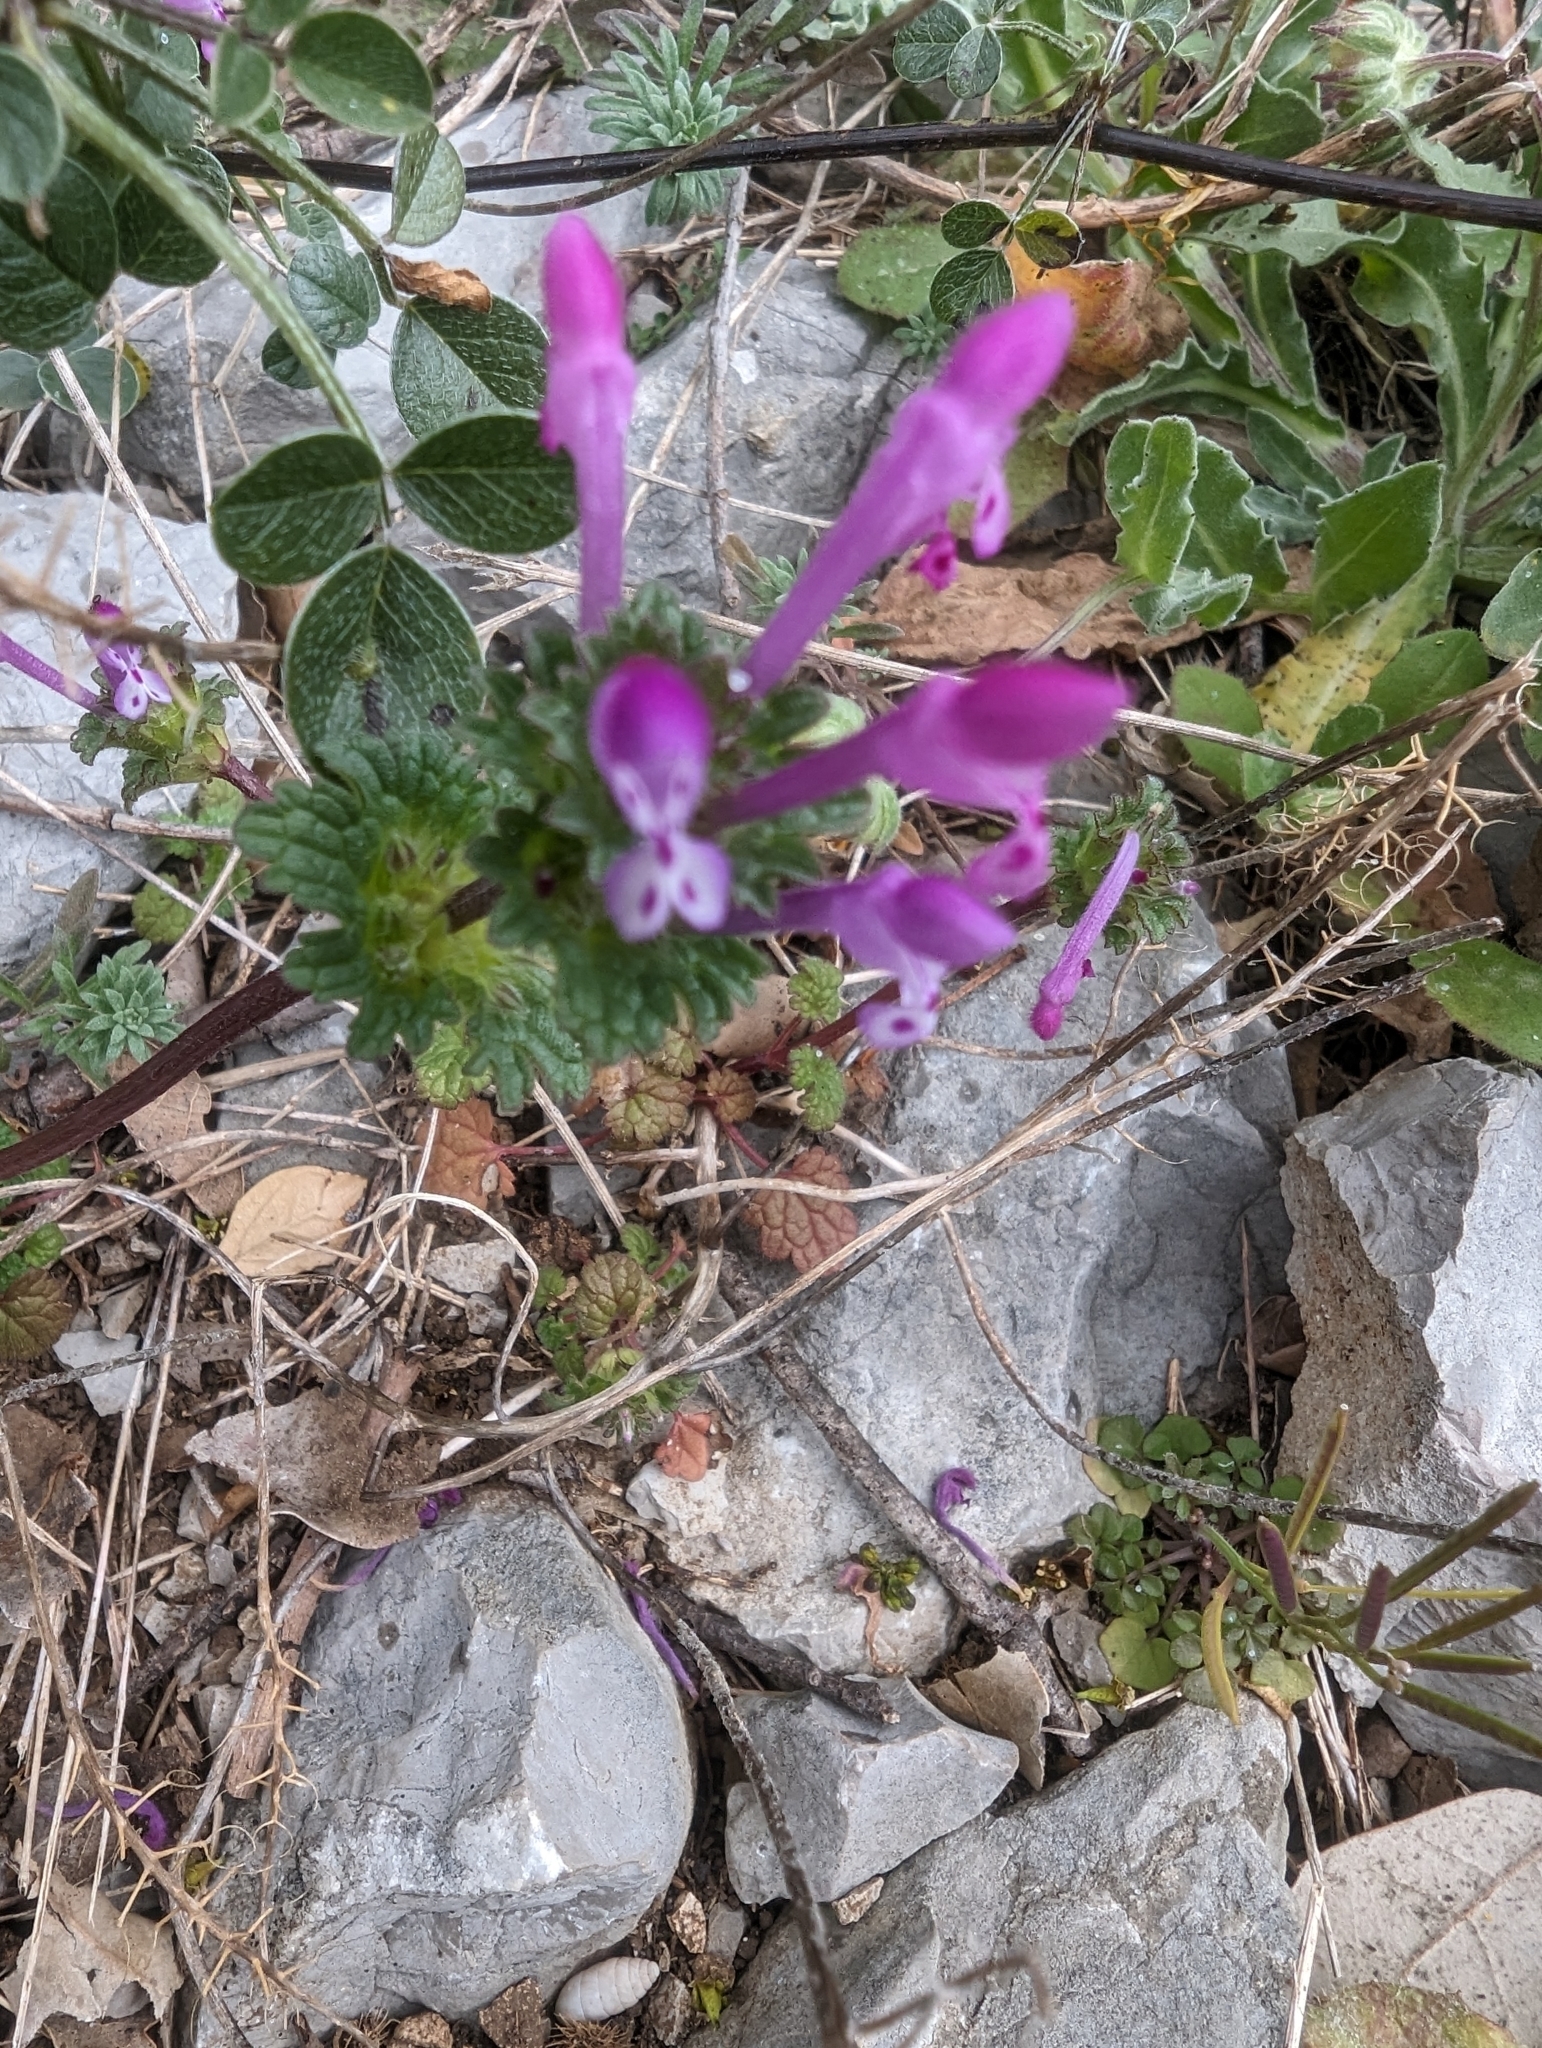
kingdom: Plantae
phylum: Tracheophyta
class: Magnoliopsida
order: Lamiales
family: Lamiaceae
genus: Lamium
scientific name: Lamium amplexicaule
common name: Henbit dead-nettle
